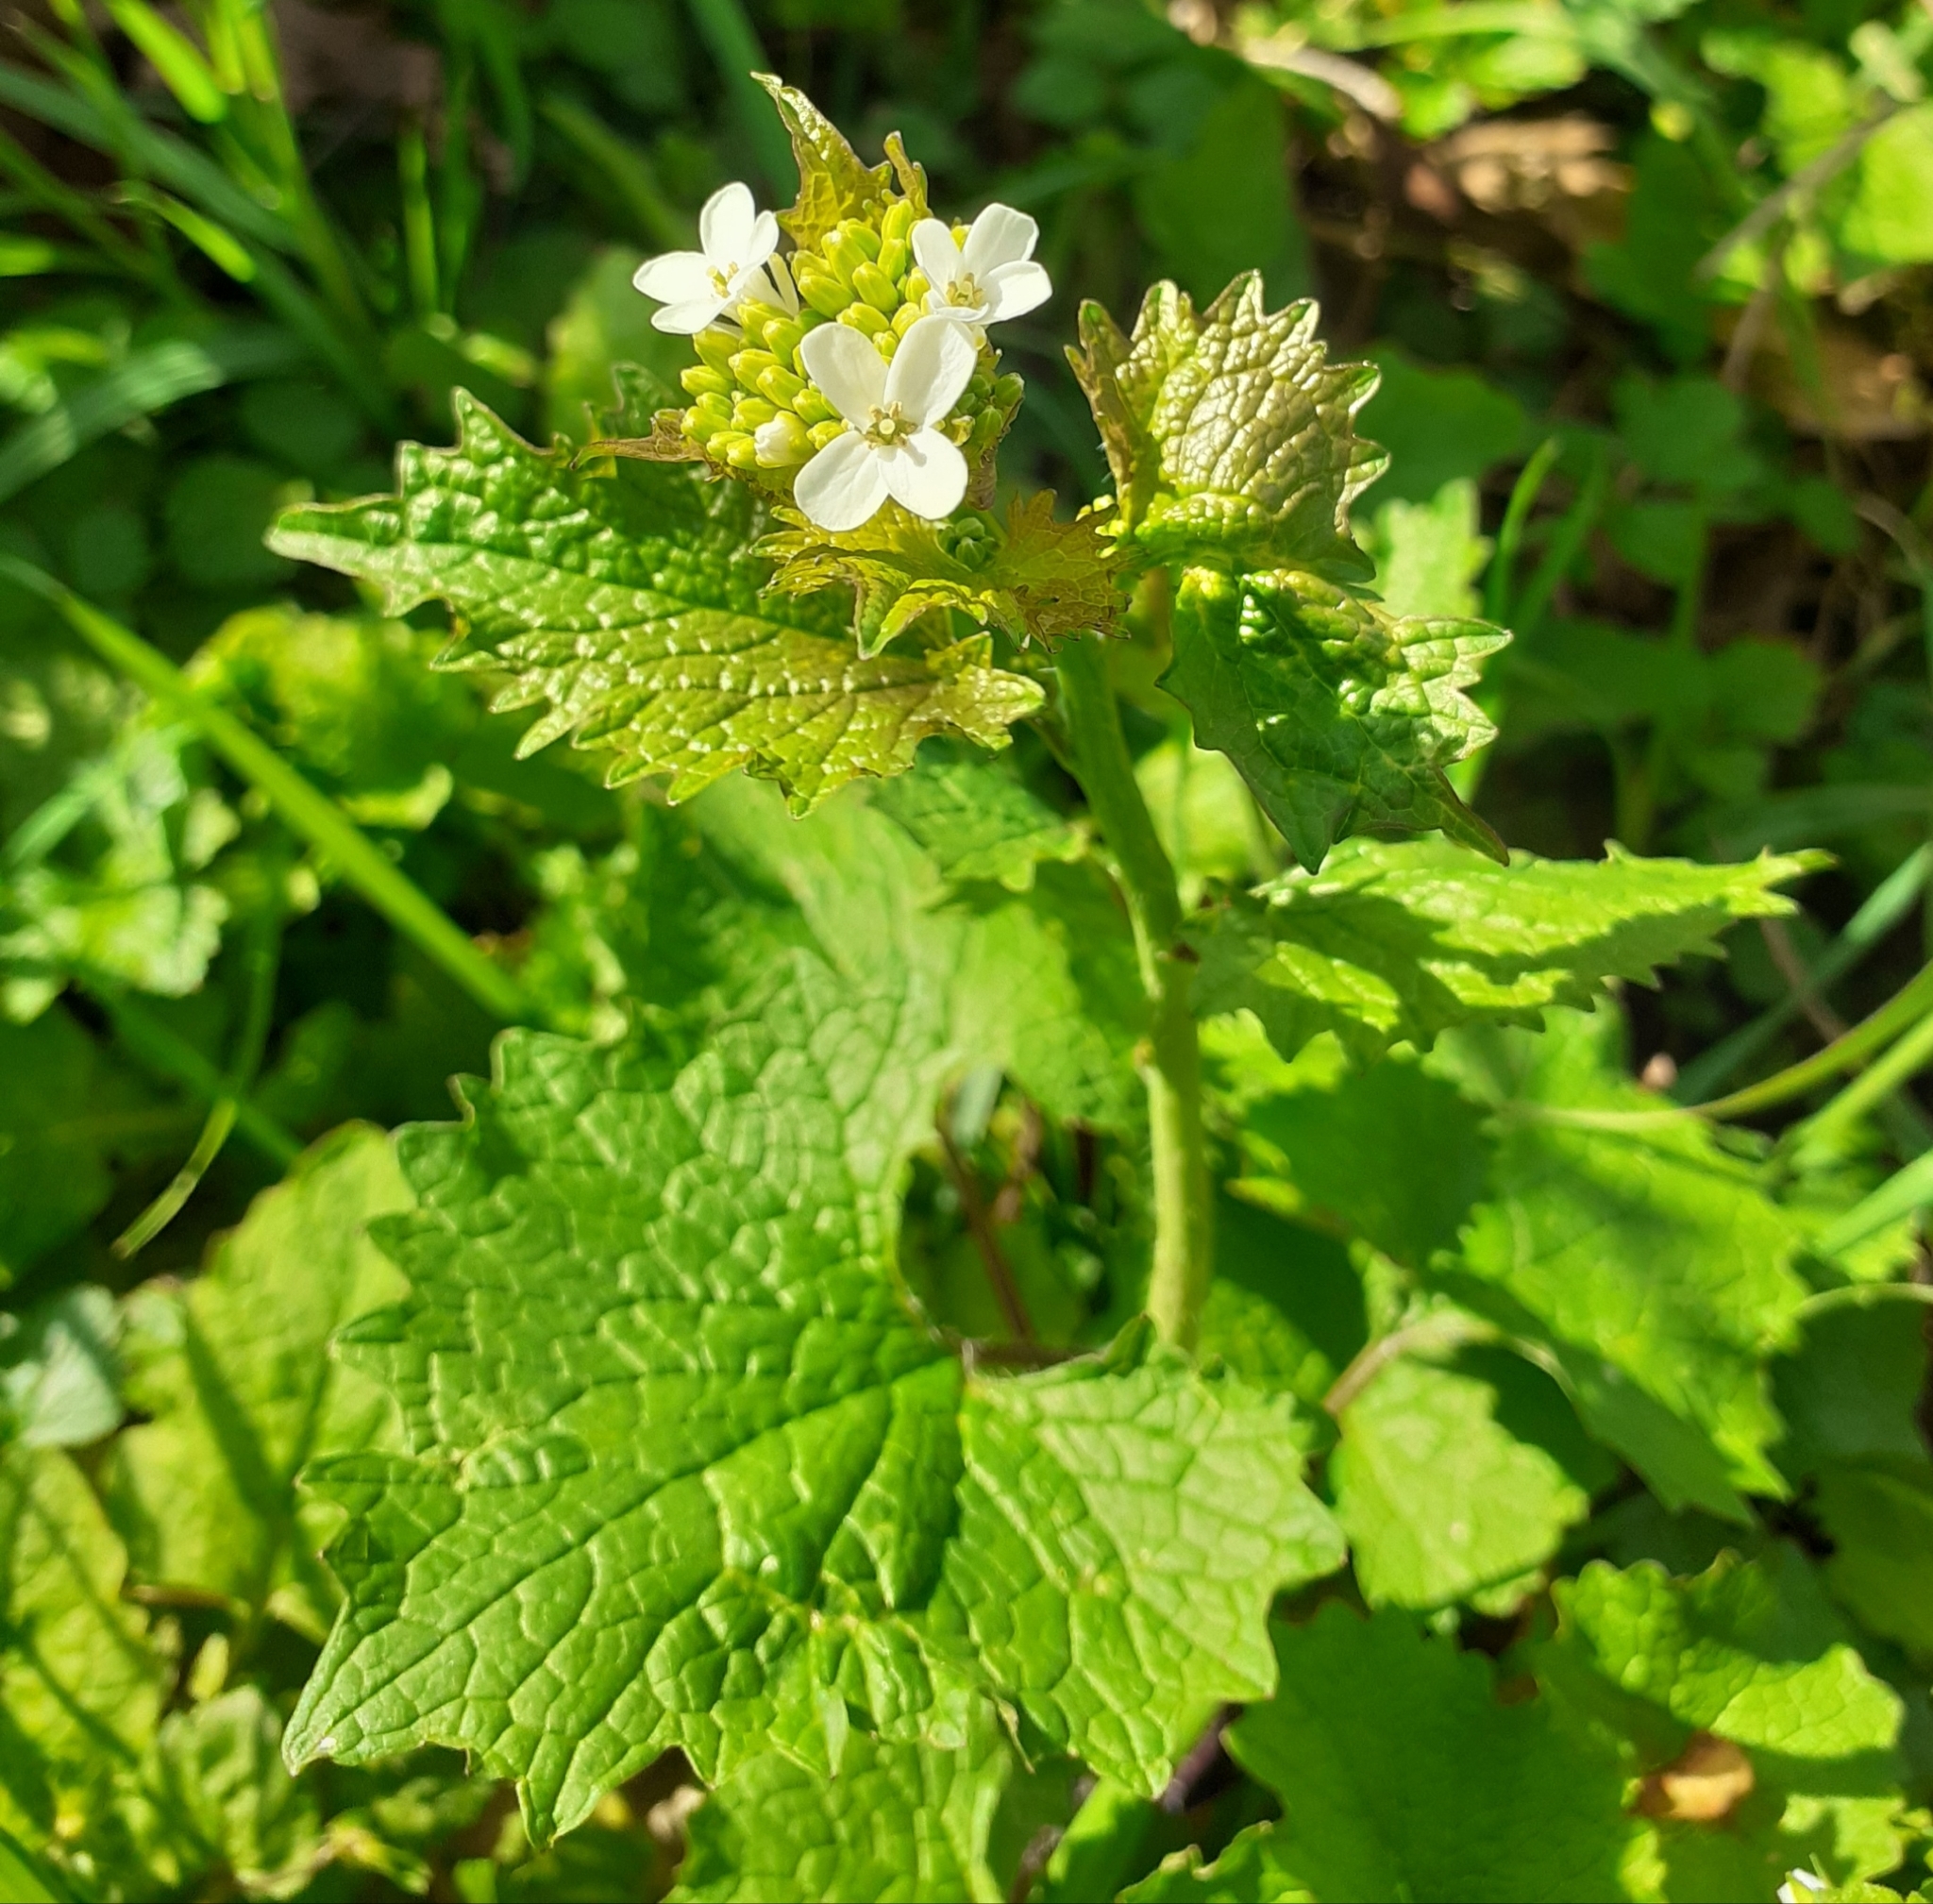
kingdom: Plantae
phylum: Tracheophyta
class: Magnoliopsida
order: Brassicales
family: Brassicaceae
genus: Alliaria
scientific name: Alliaria petiolata
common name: Garlic mustard
